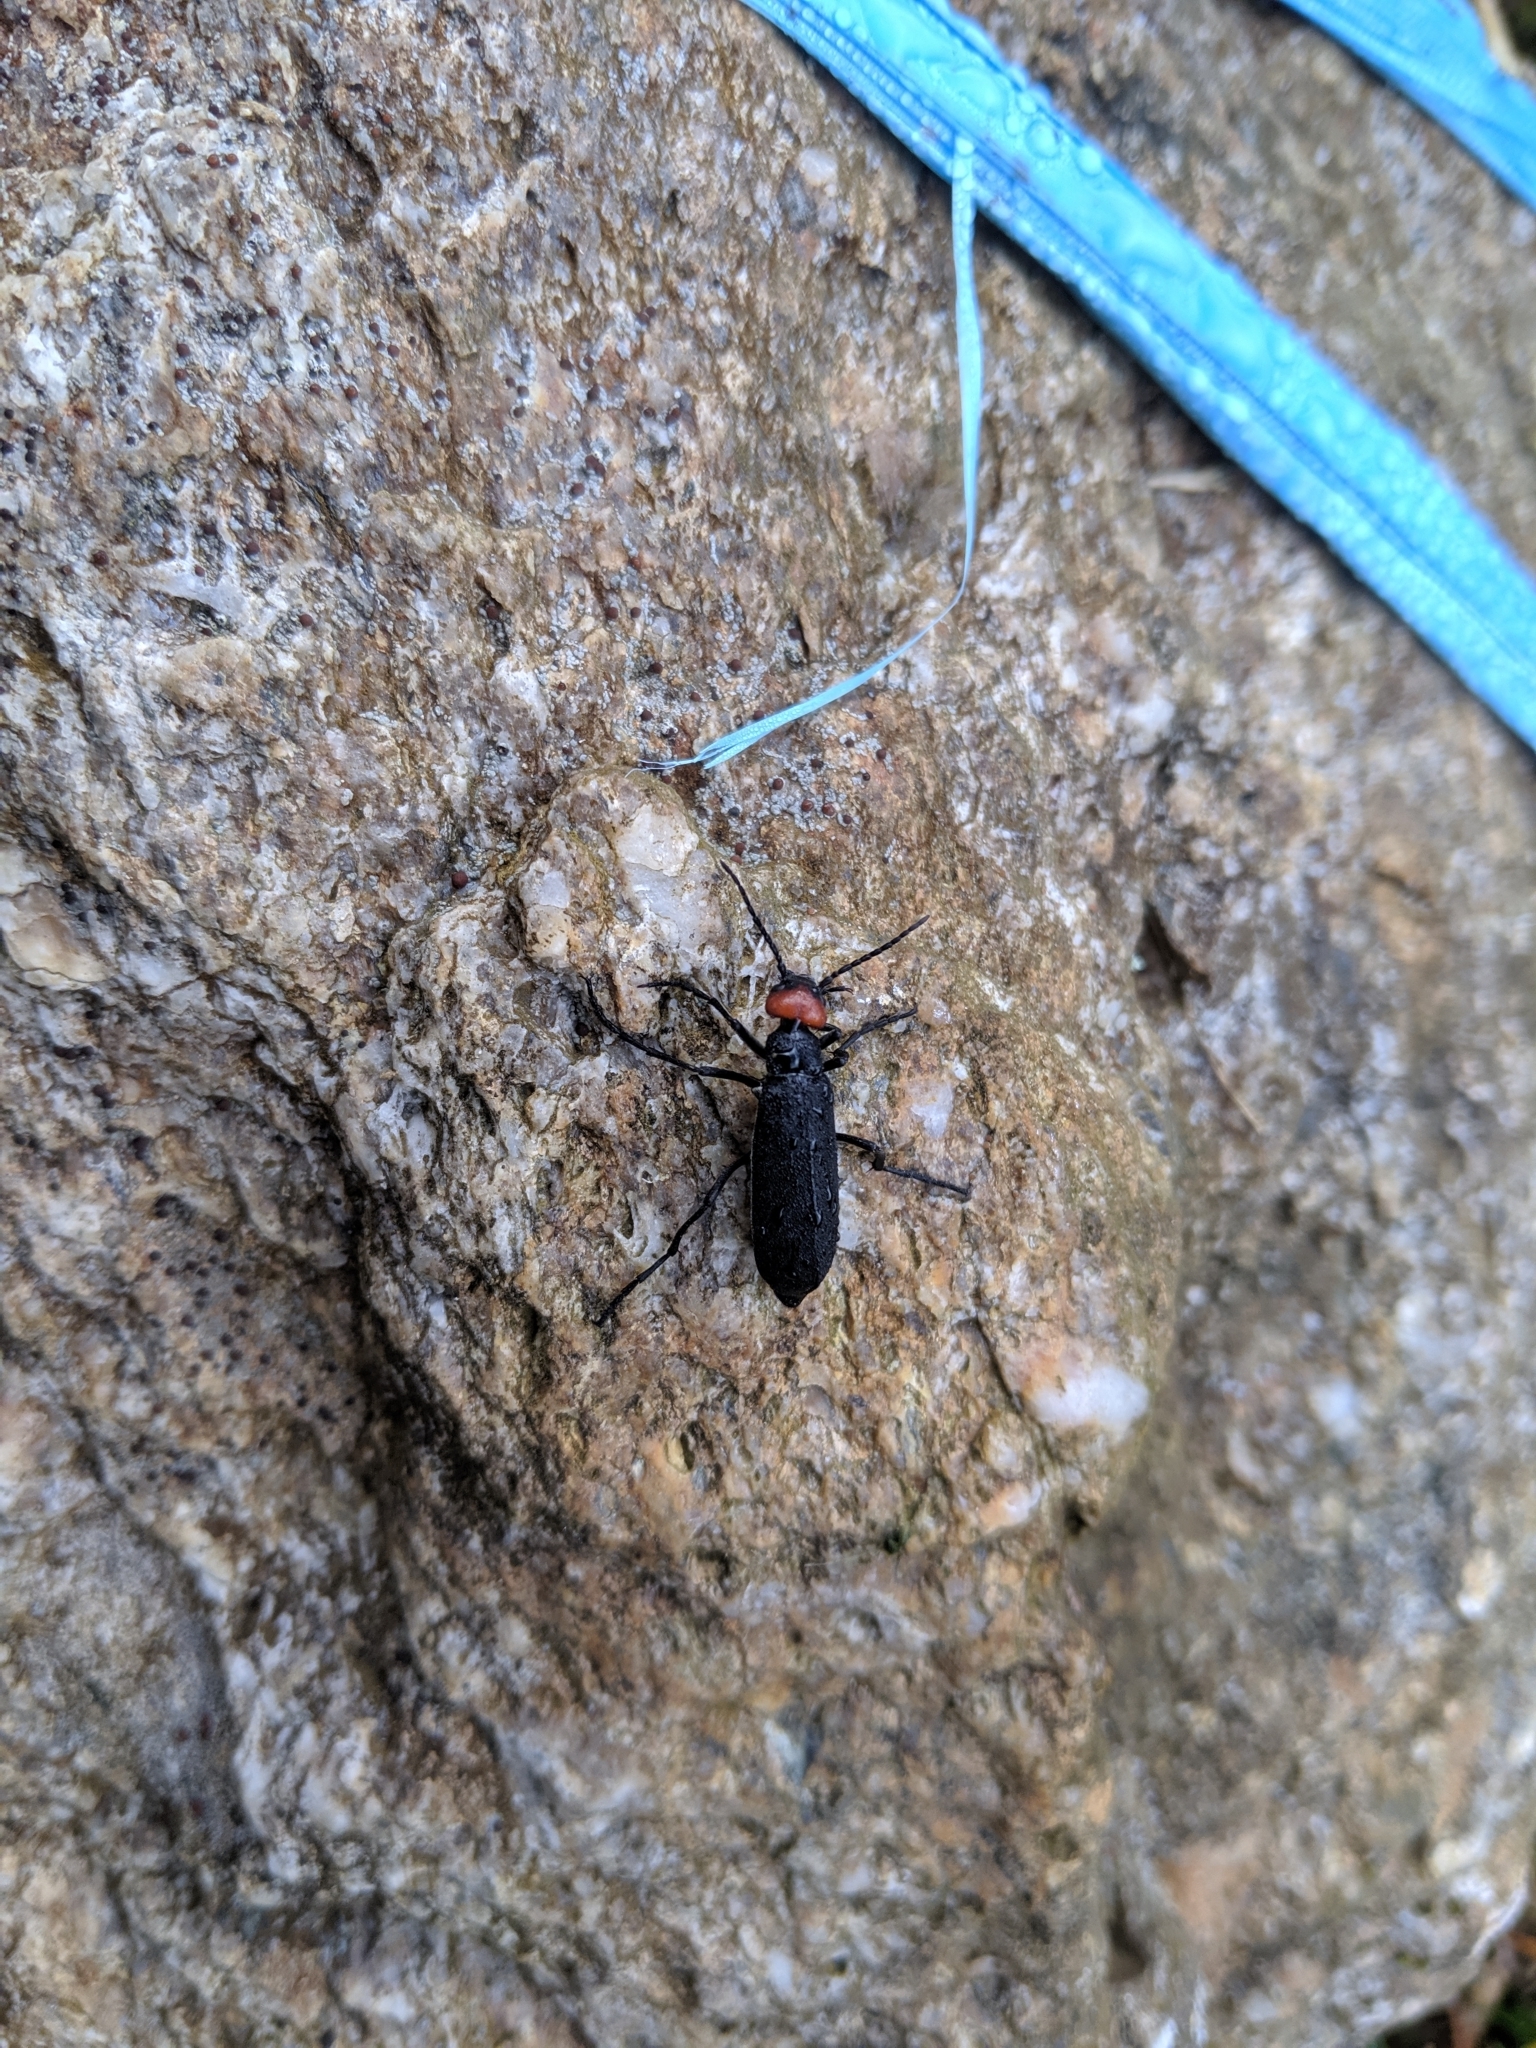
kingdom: Animalia
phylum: Arthropoda
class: Insecta
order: Coleoptera
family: Meloidae
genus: Epicauta
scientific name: Epicauta hirticornis
